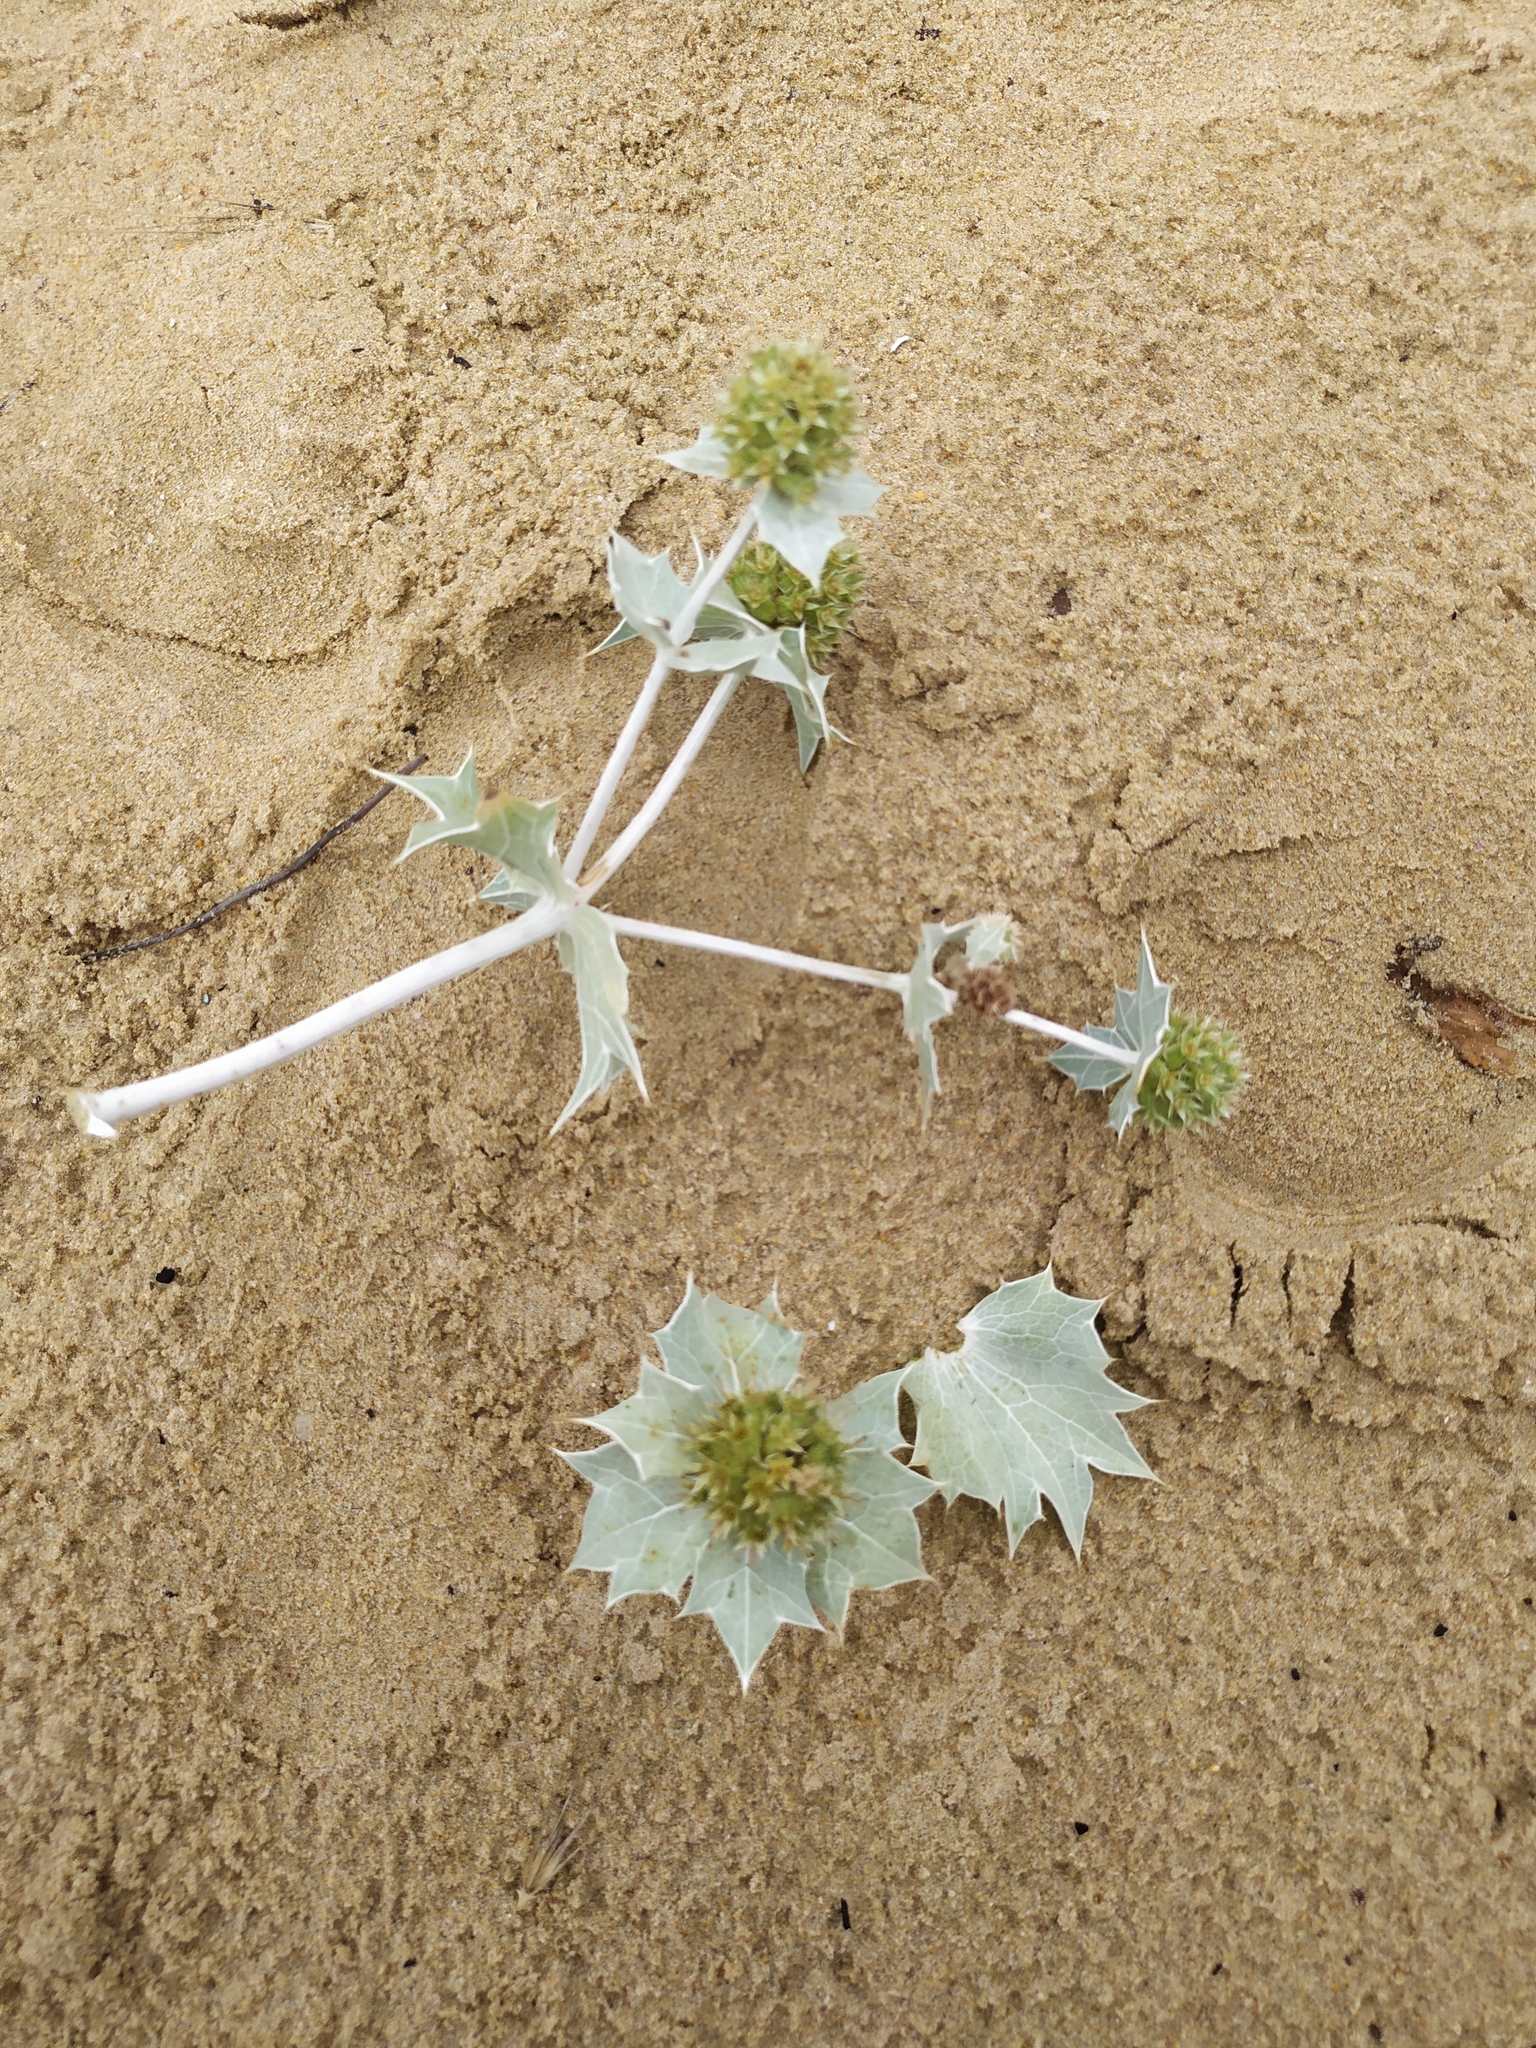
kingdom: Plantae
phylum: Tracheophyta
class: Magnoliopsida
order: Apiales
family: Apiaceae
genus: Eryngium
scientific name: Eryngium maritimum
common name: Sea-holly
